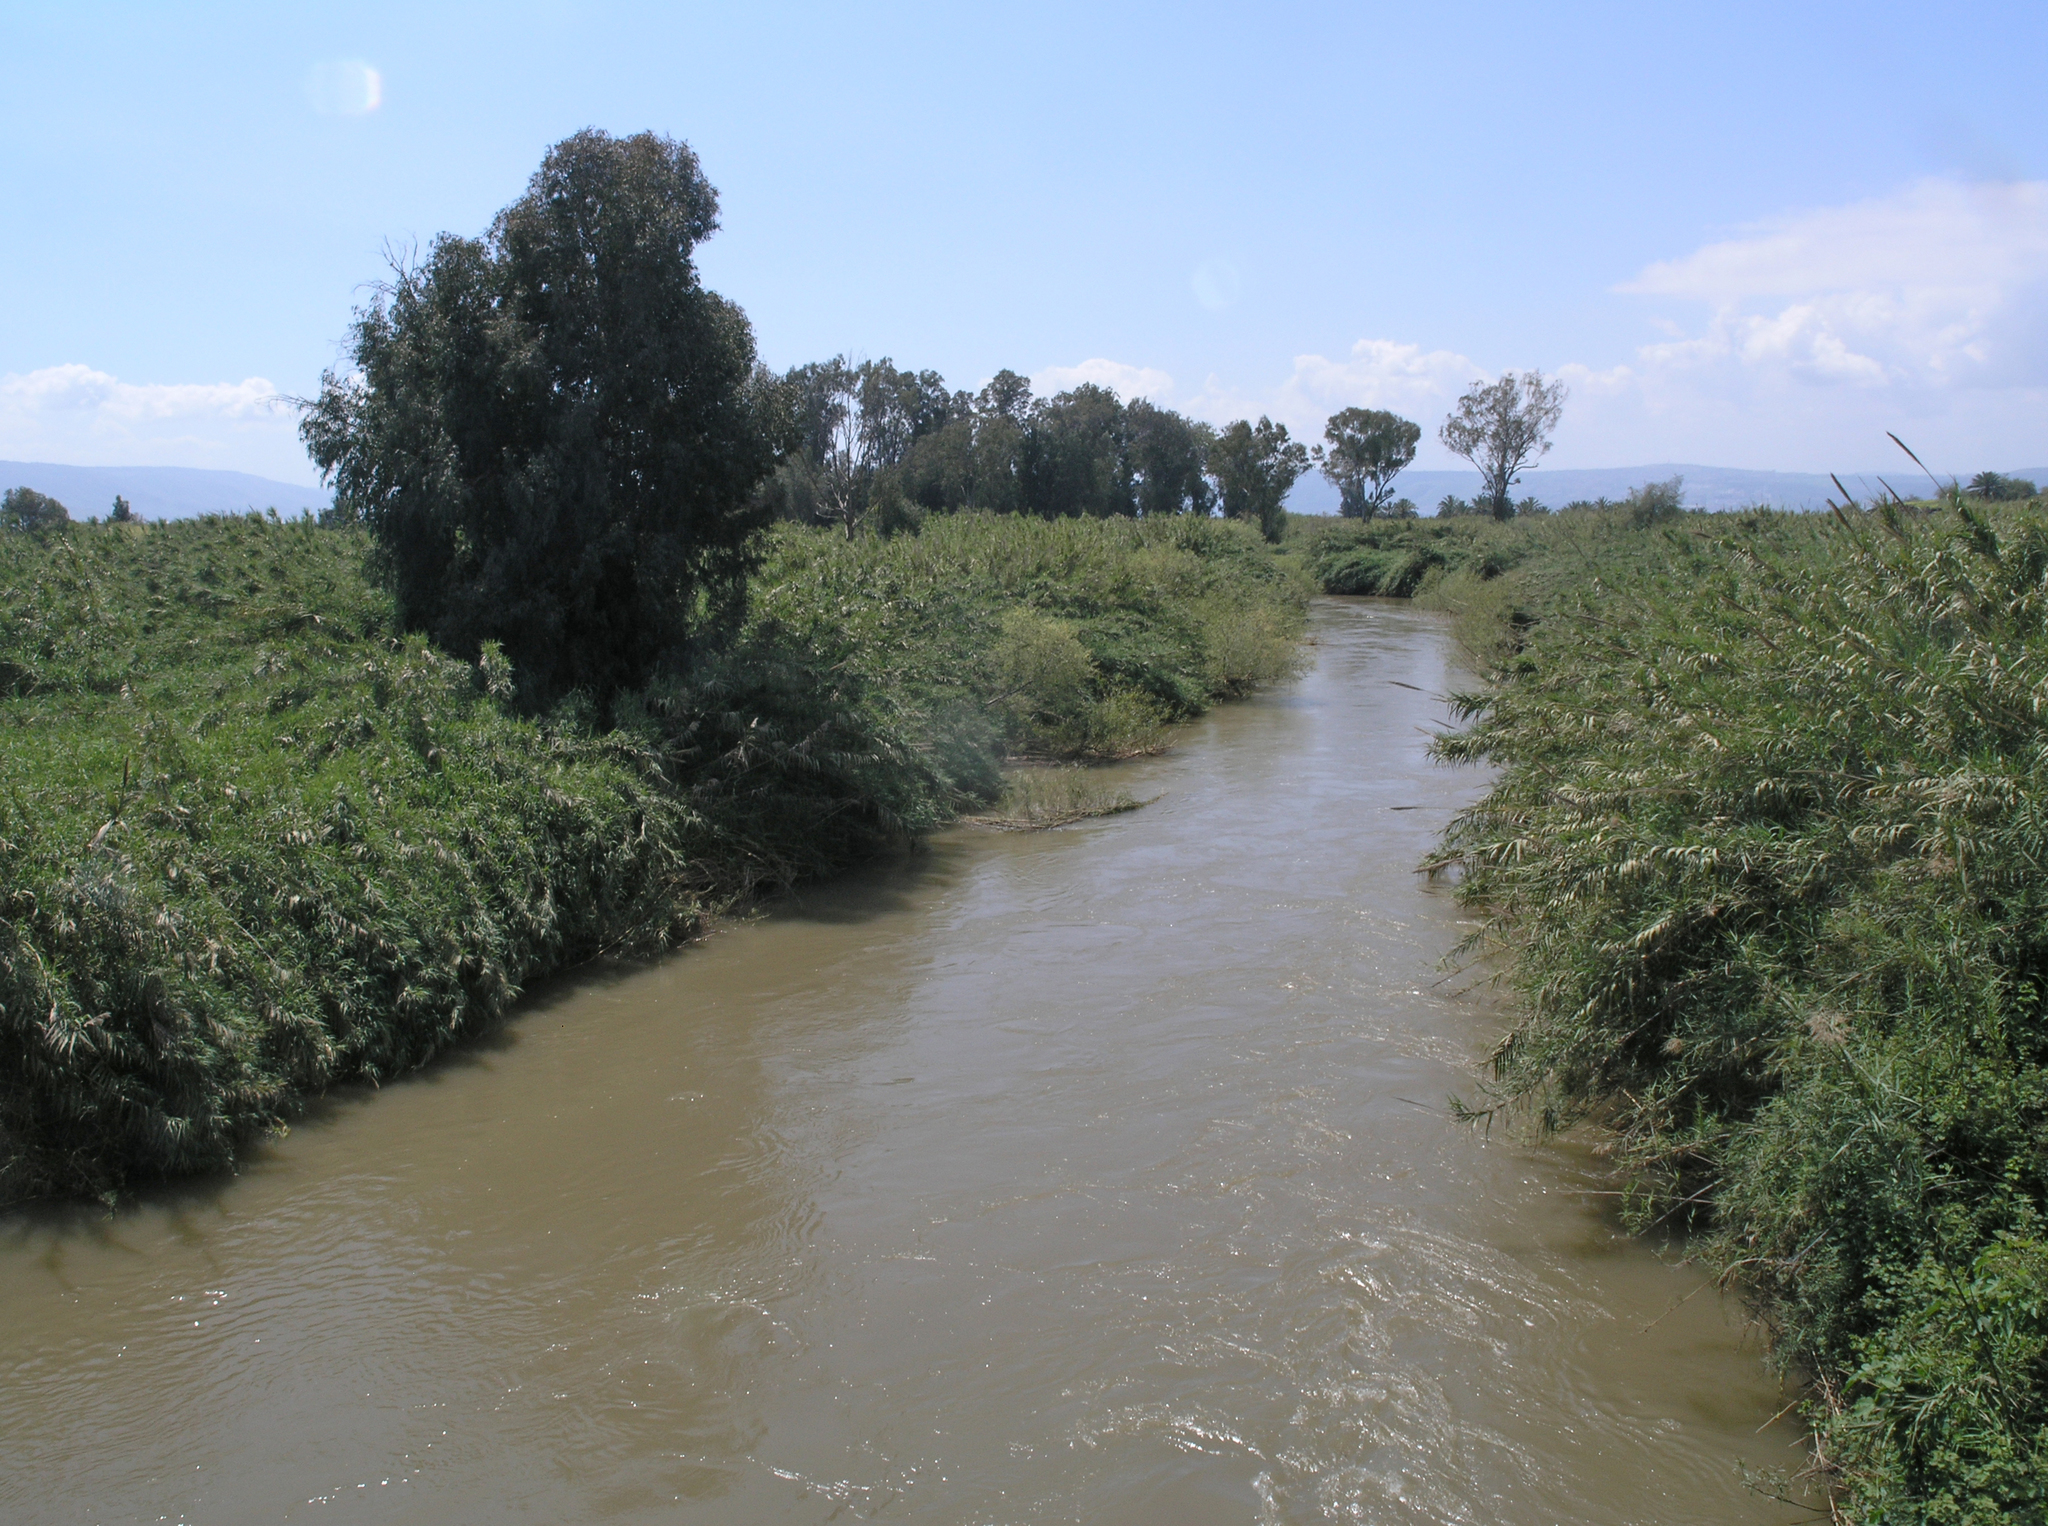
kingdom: Plantae
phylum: Tracheophyta
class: Liliopsida
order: Poales
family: Poaceae
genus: Arundo
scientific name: Arundo donax
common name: Giant reed
